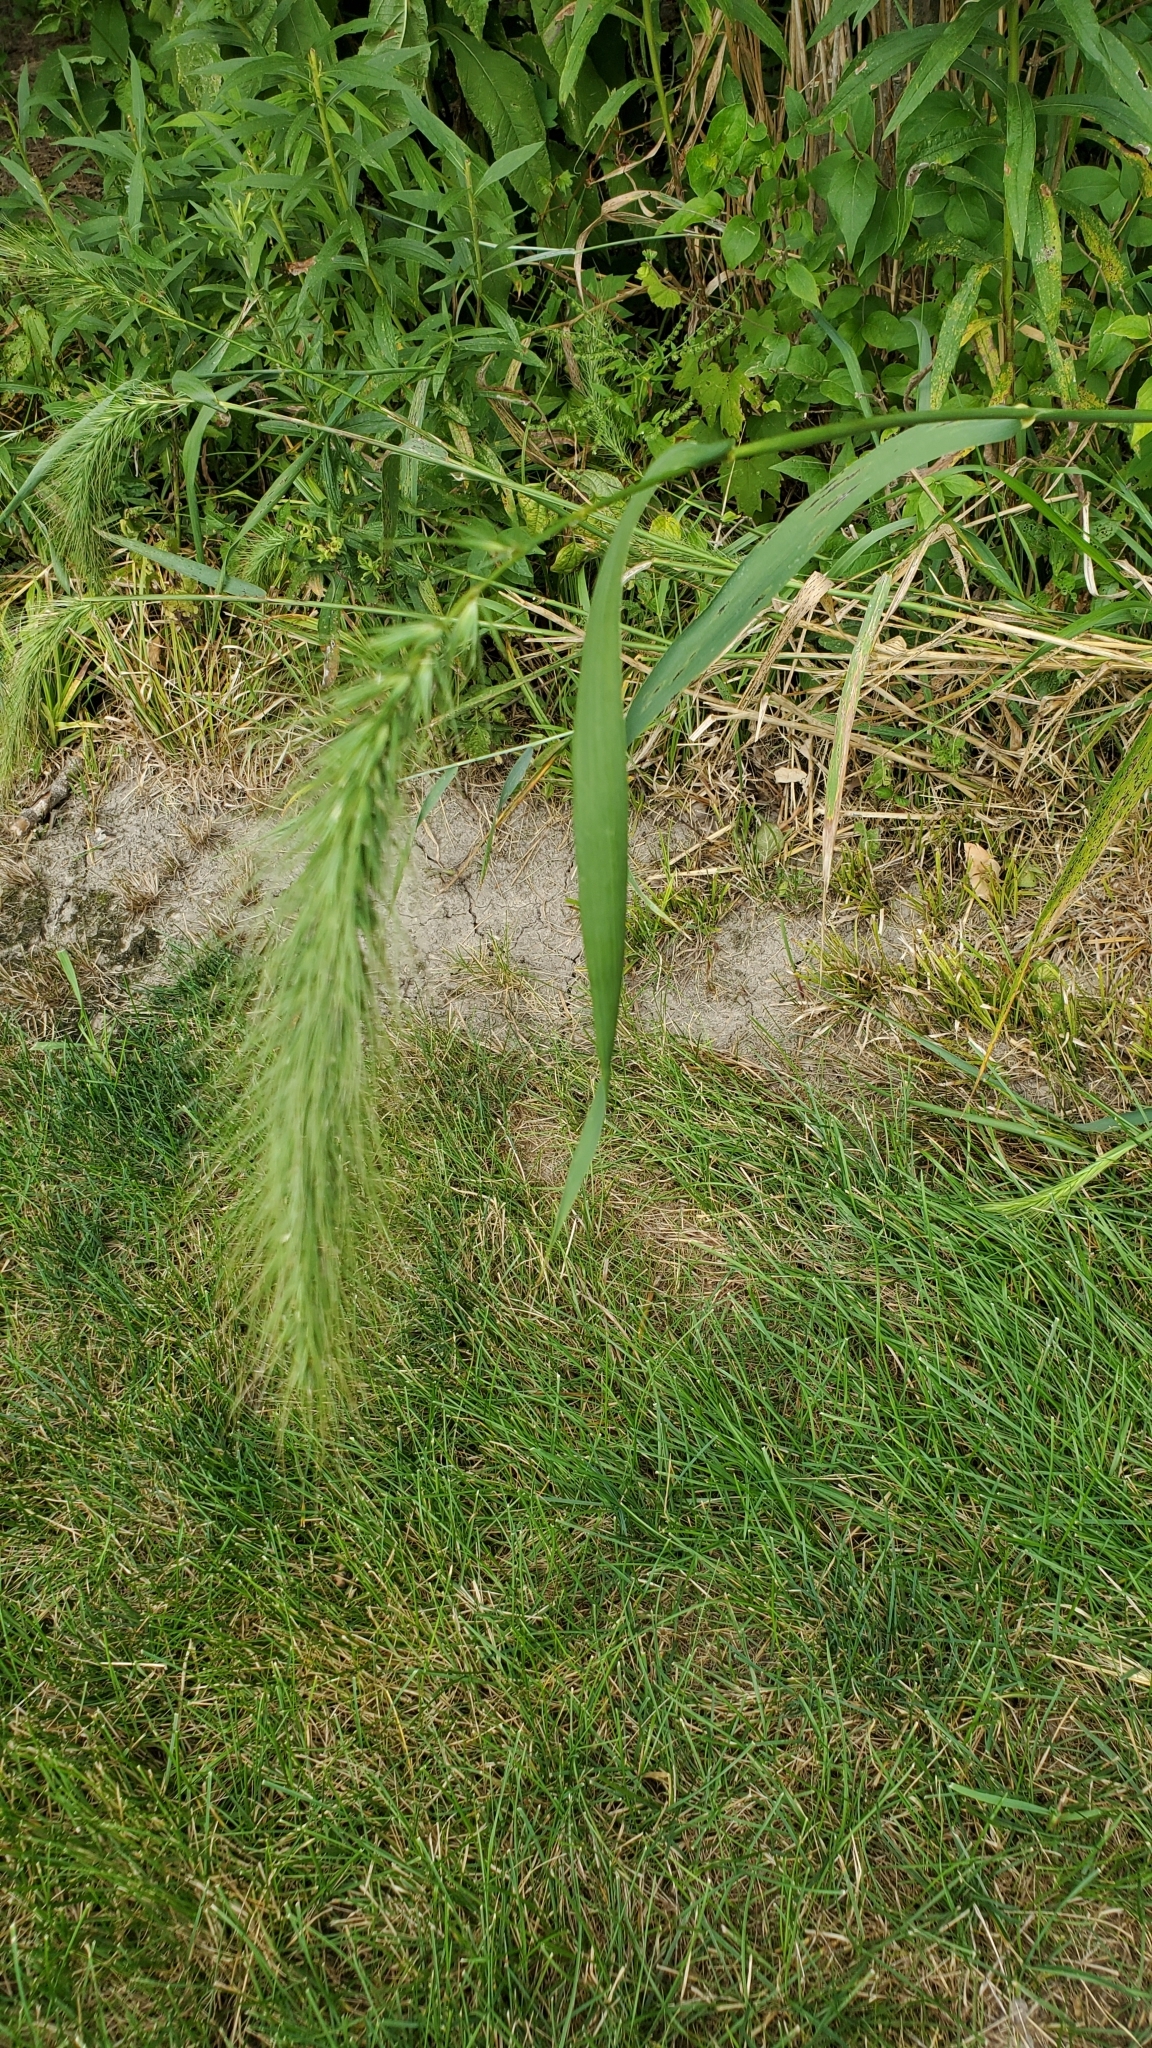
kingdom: Plantae
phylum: Tracheophyta
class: Liliopsida
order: Poales
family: Poaceae
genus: Elymus
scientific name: Elymus canadensis
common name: Canada wild rye
